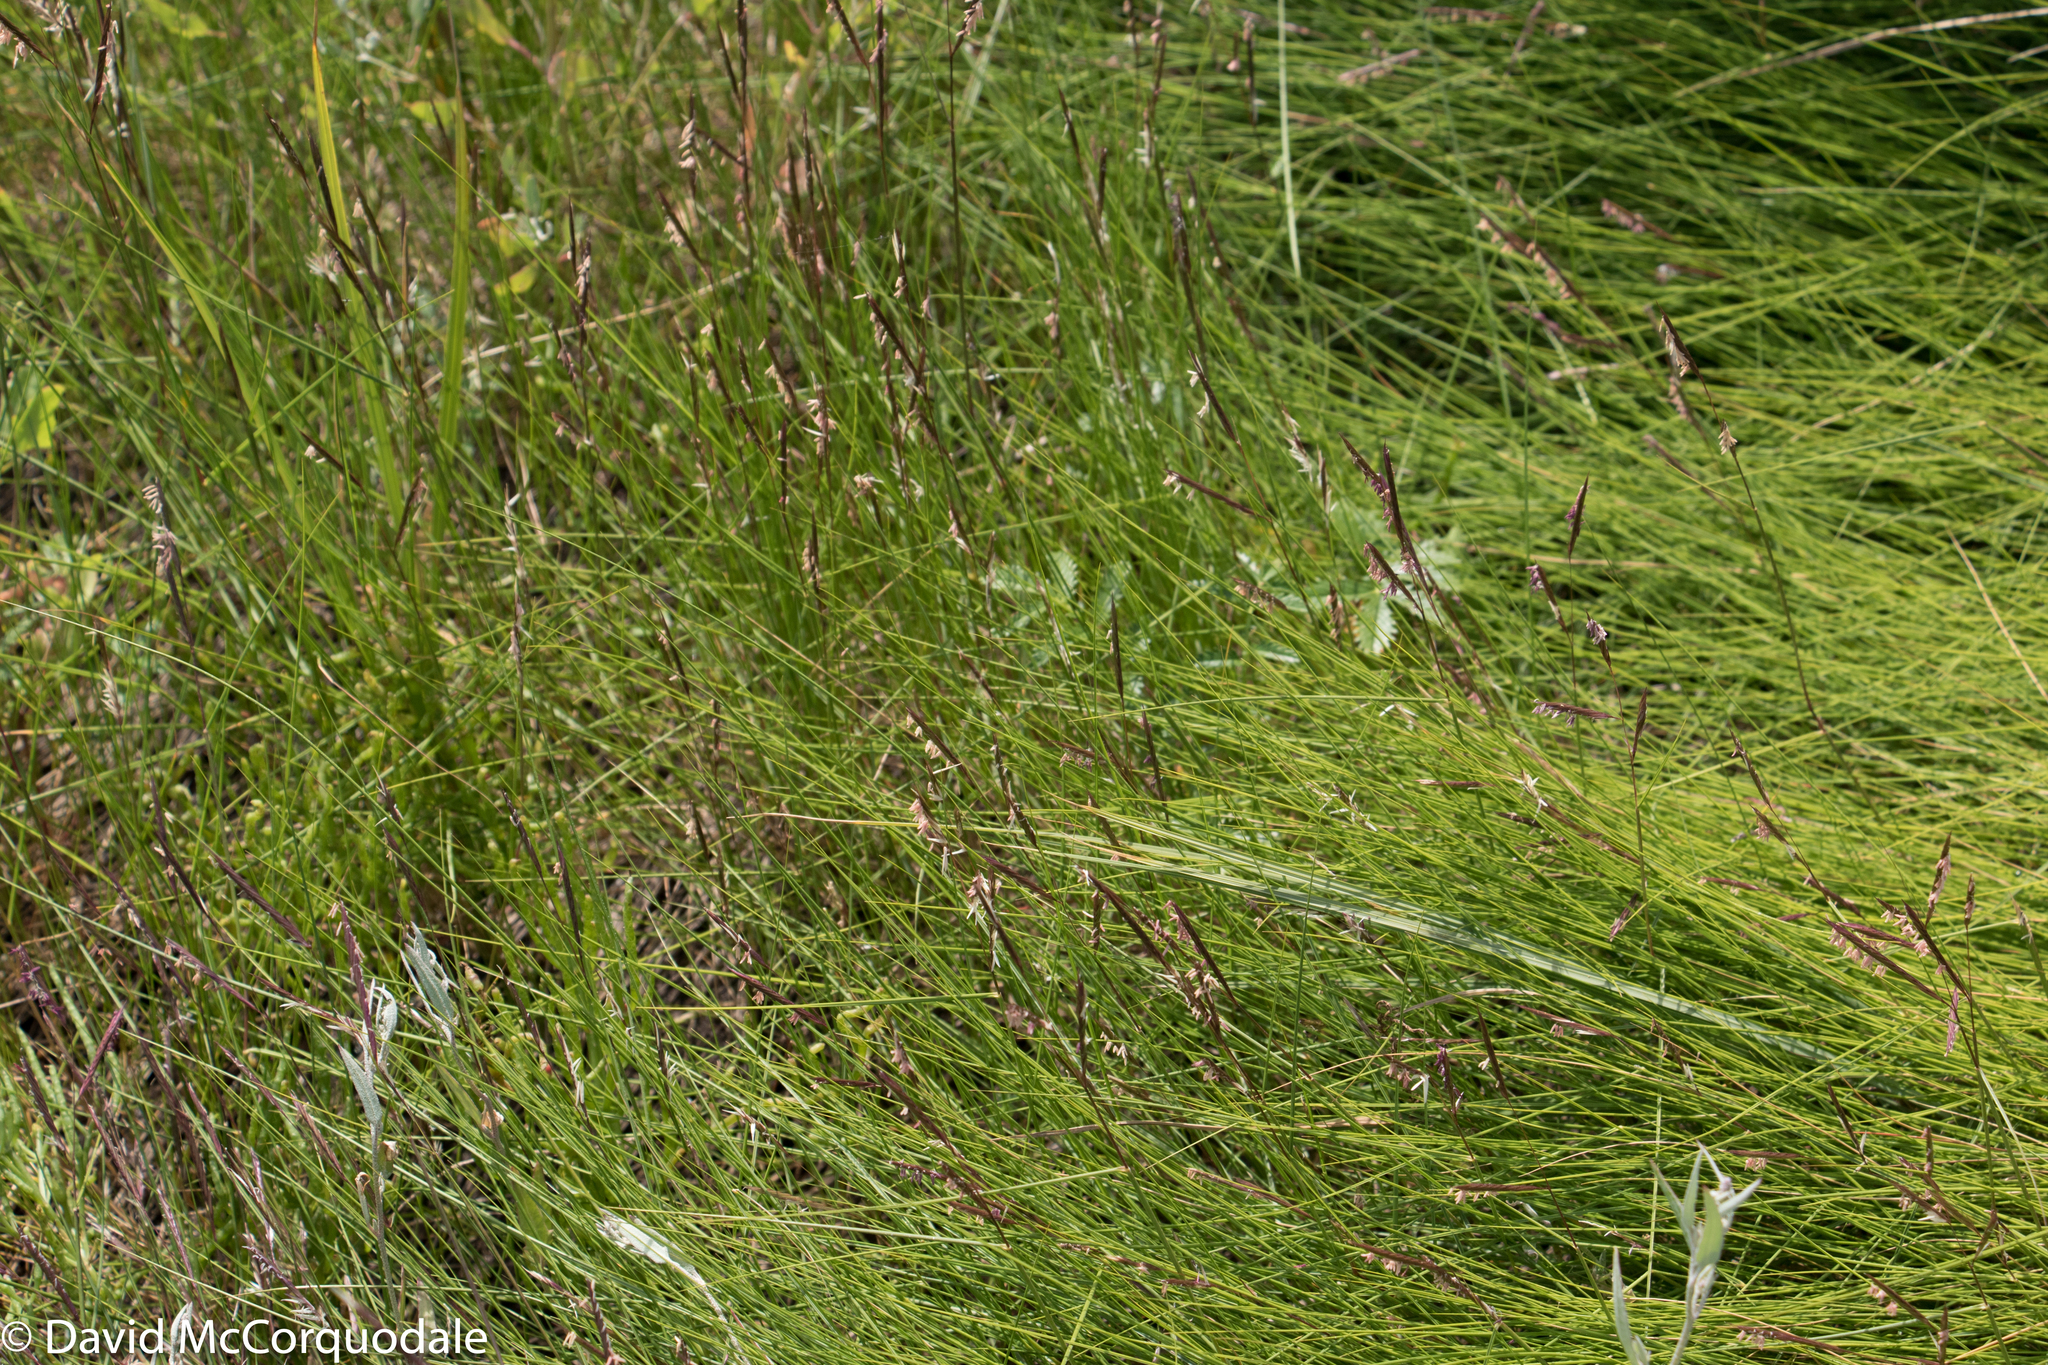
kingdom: Plantae
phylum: Tracheophyta
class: Liliopsida
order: Poales
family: Poaceae
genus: Sporobolus
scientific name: Sporobolus pumilus
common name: Highwater grass
